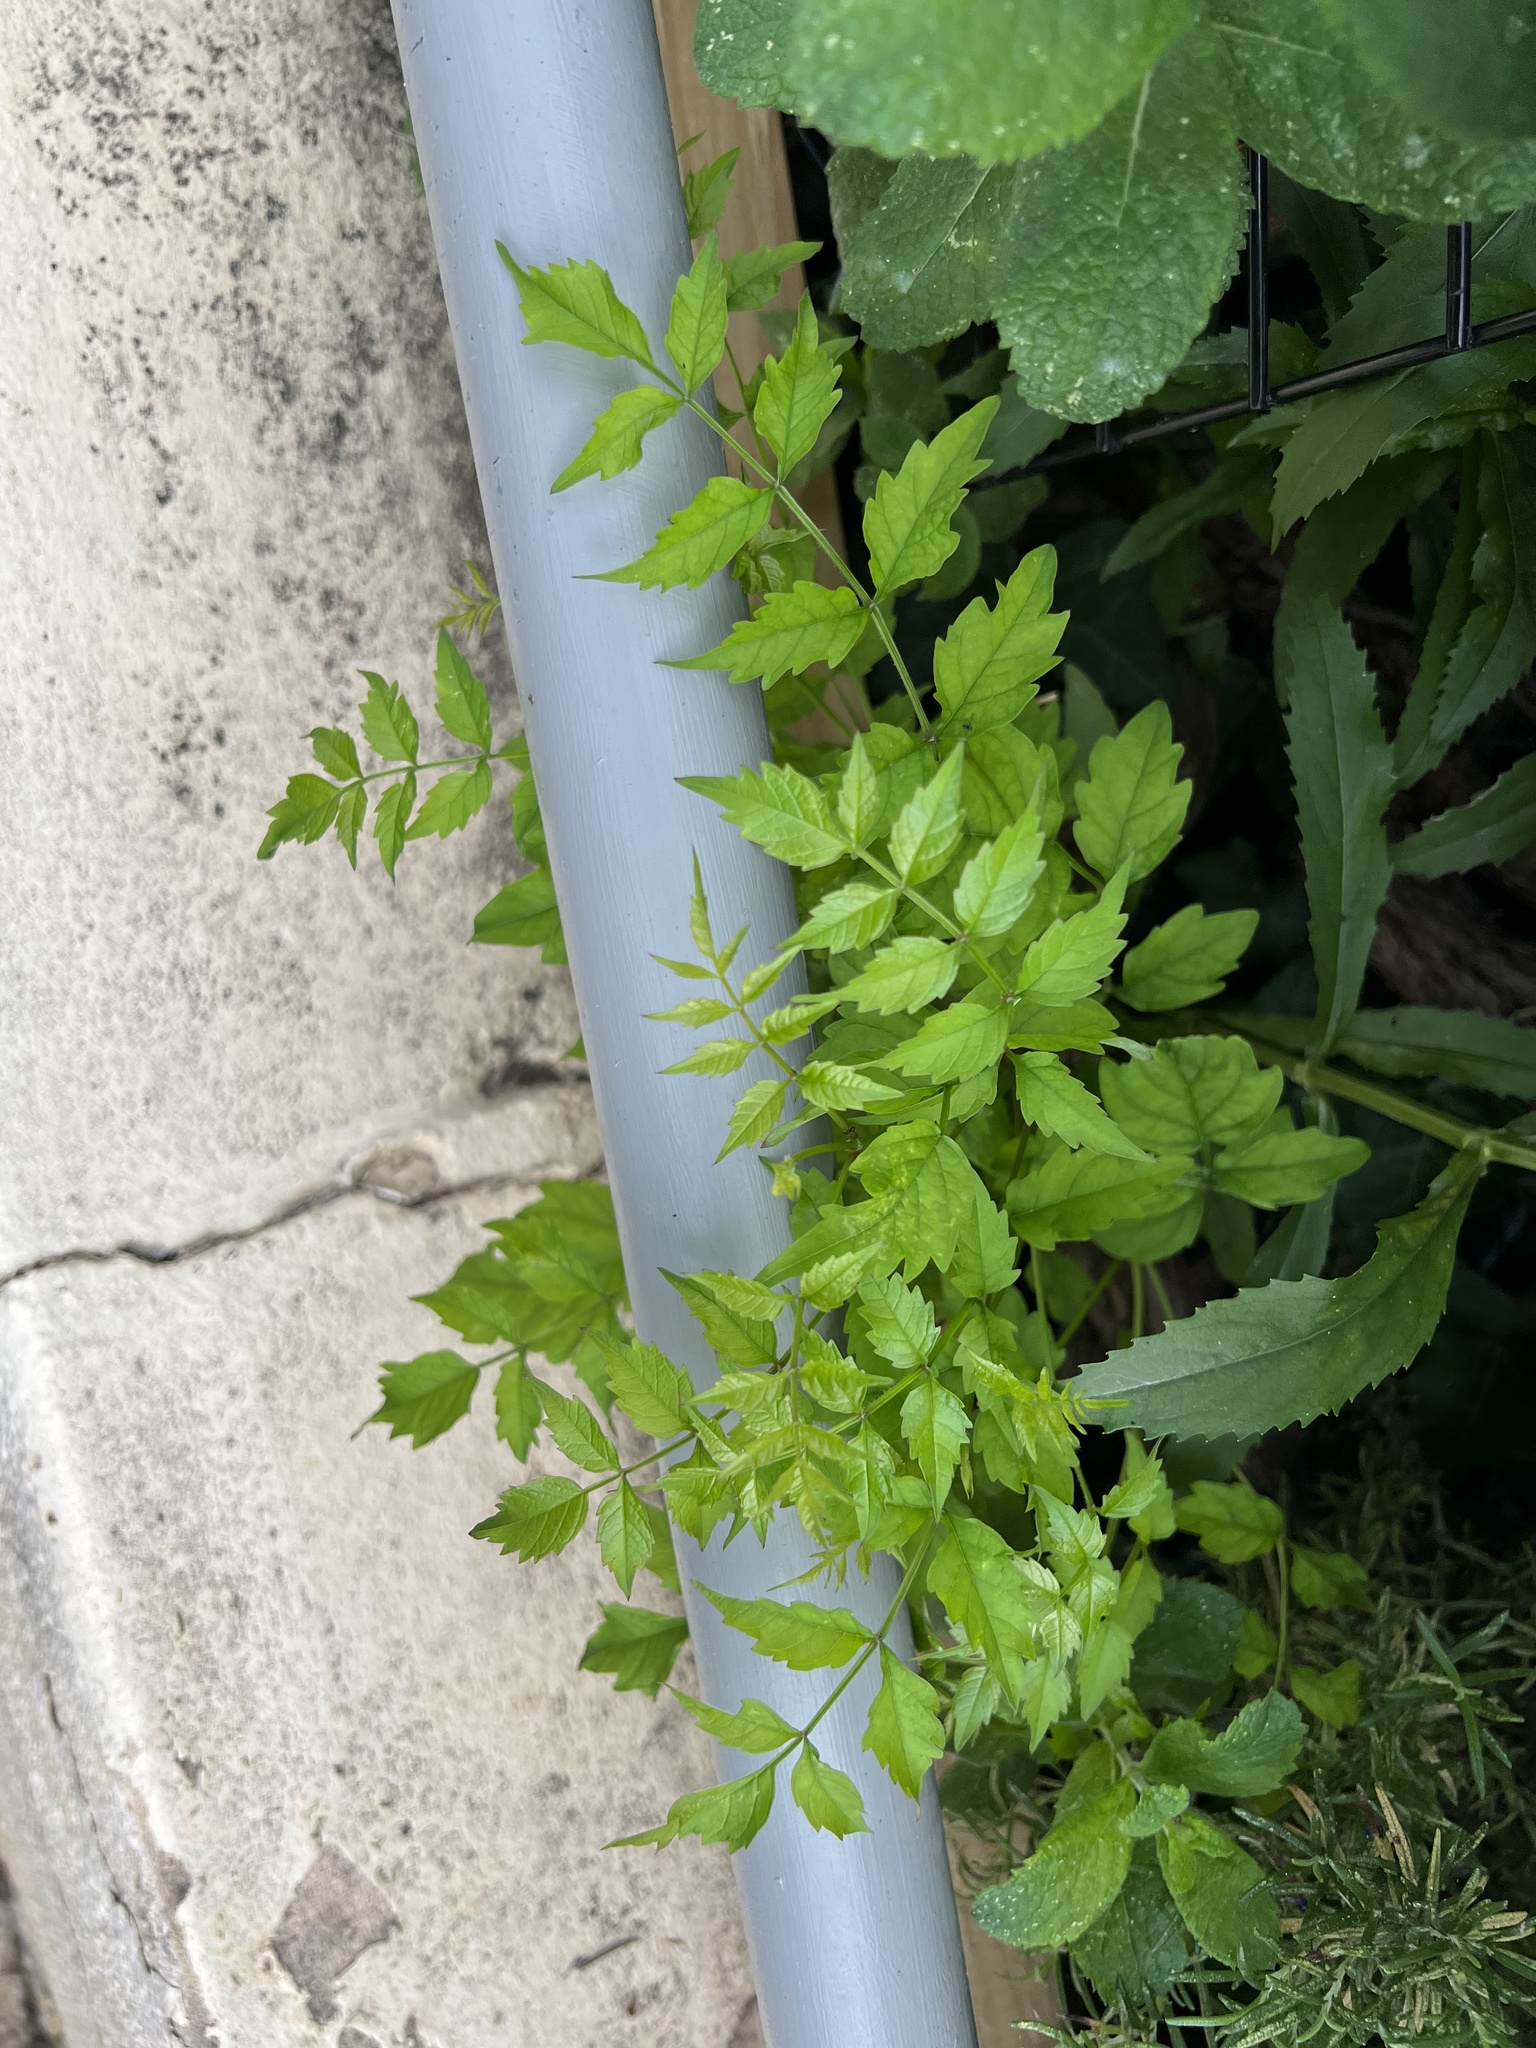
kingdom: Plantae
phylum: Tracheophyta
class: Magnoliopsida
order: Lamiales
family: Bignoniaceae
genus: Campsis
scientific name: Campsis radicans
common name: Trumpet-creeper
